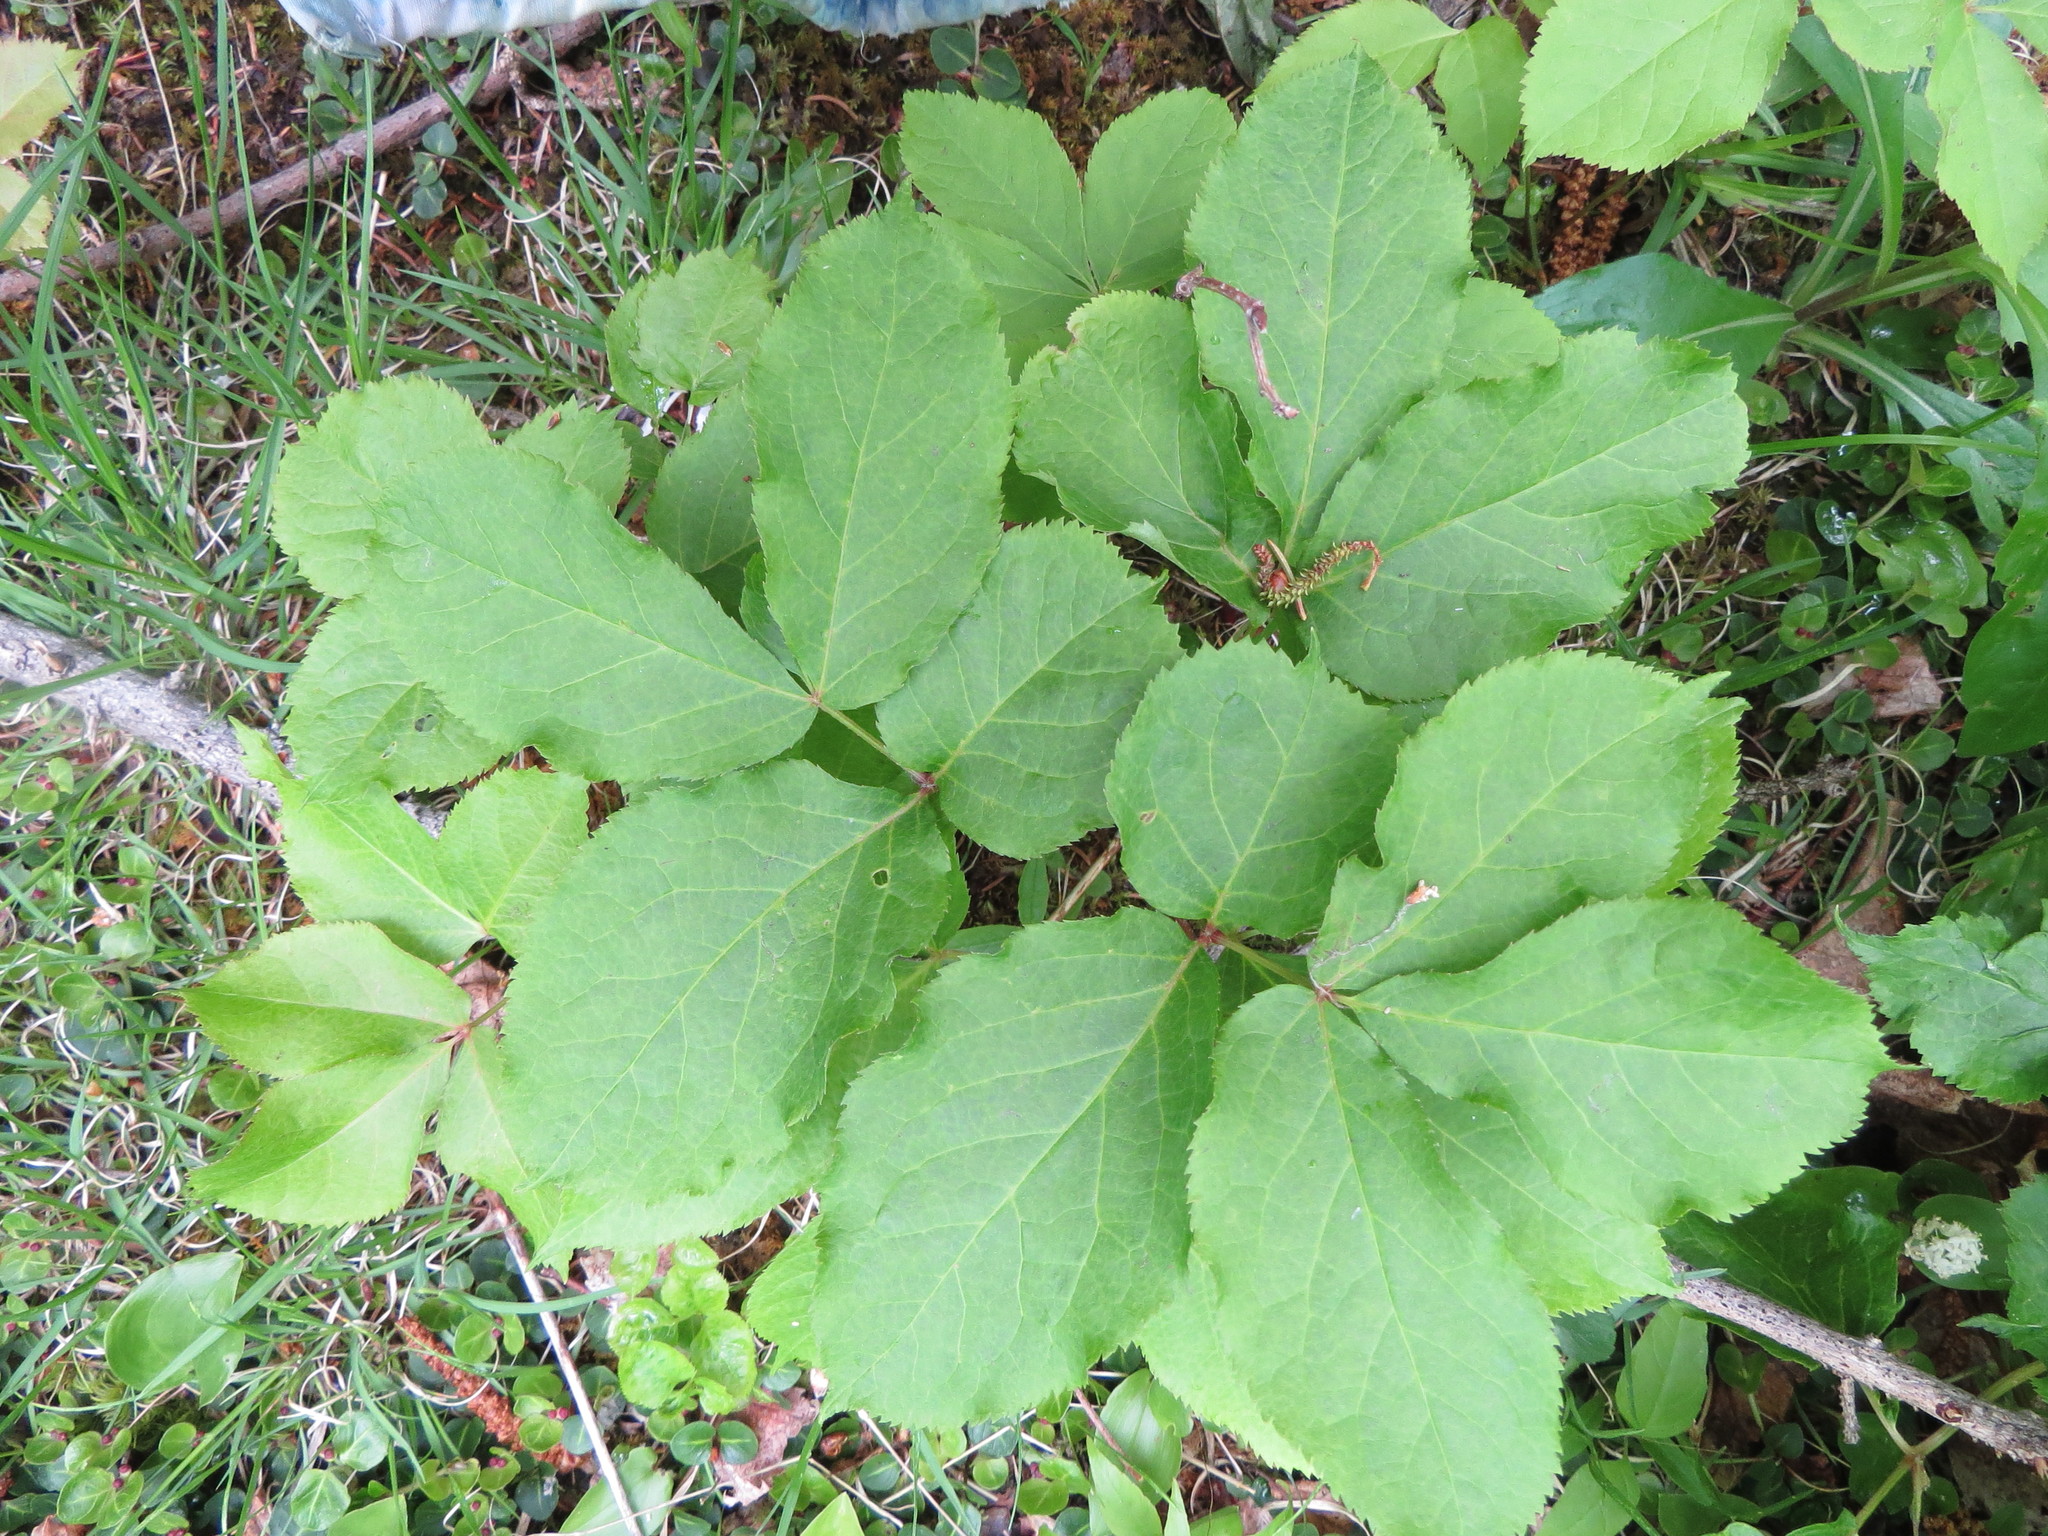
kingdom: Plantae
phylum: Tracheophyta
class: Magnoliopsida
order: Apiales
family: Araliaceae
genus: Aralia
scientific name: Aralia nudicaulis
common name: Wild sarsaparilla
